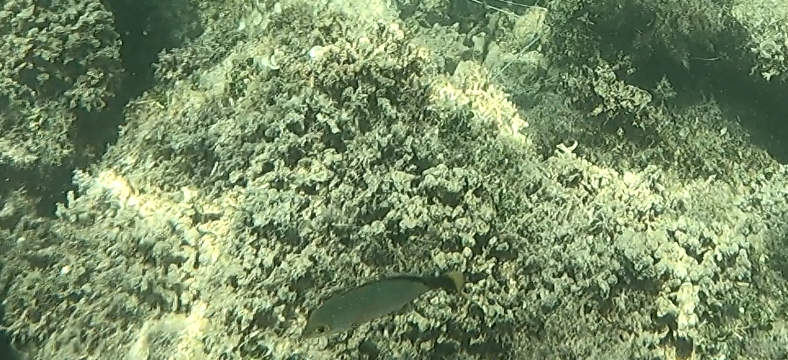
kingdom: Animalia
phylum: Chordata
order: Perciformes
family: Lutjanidae
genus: Lutjanus
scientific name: Lutjanus gibbus
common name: Humpback snapper
